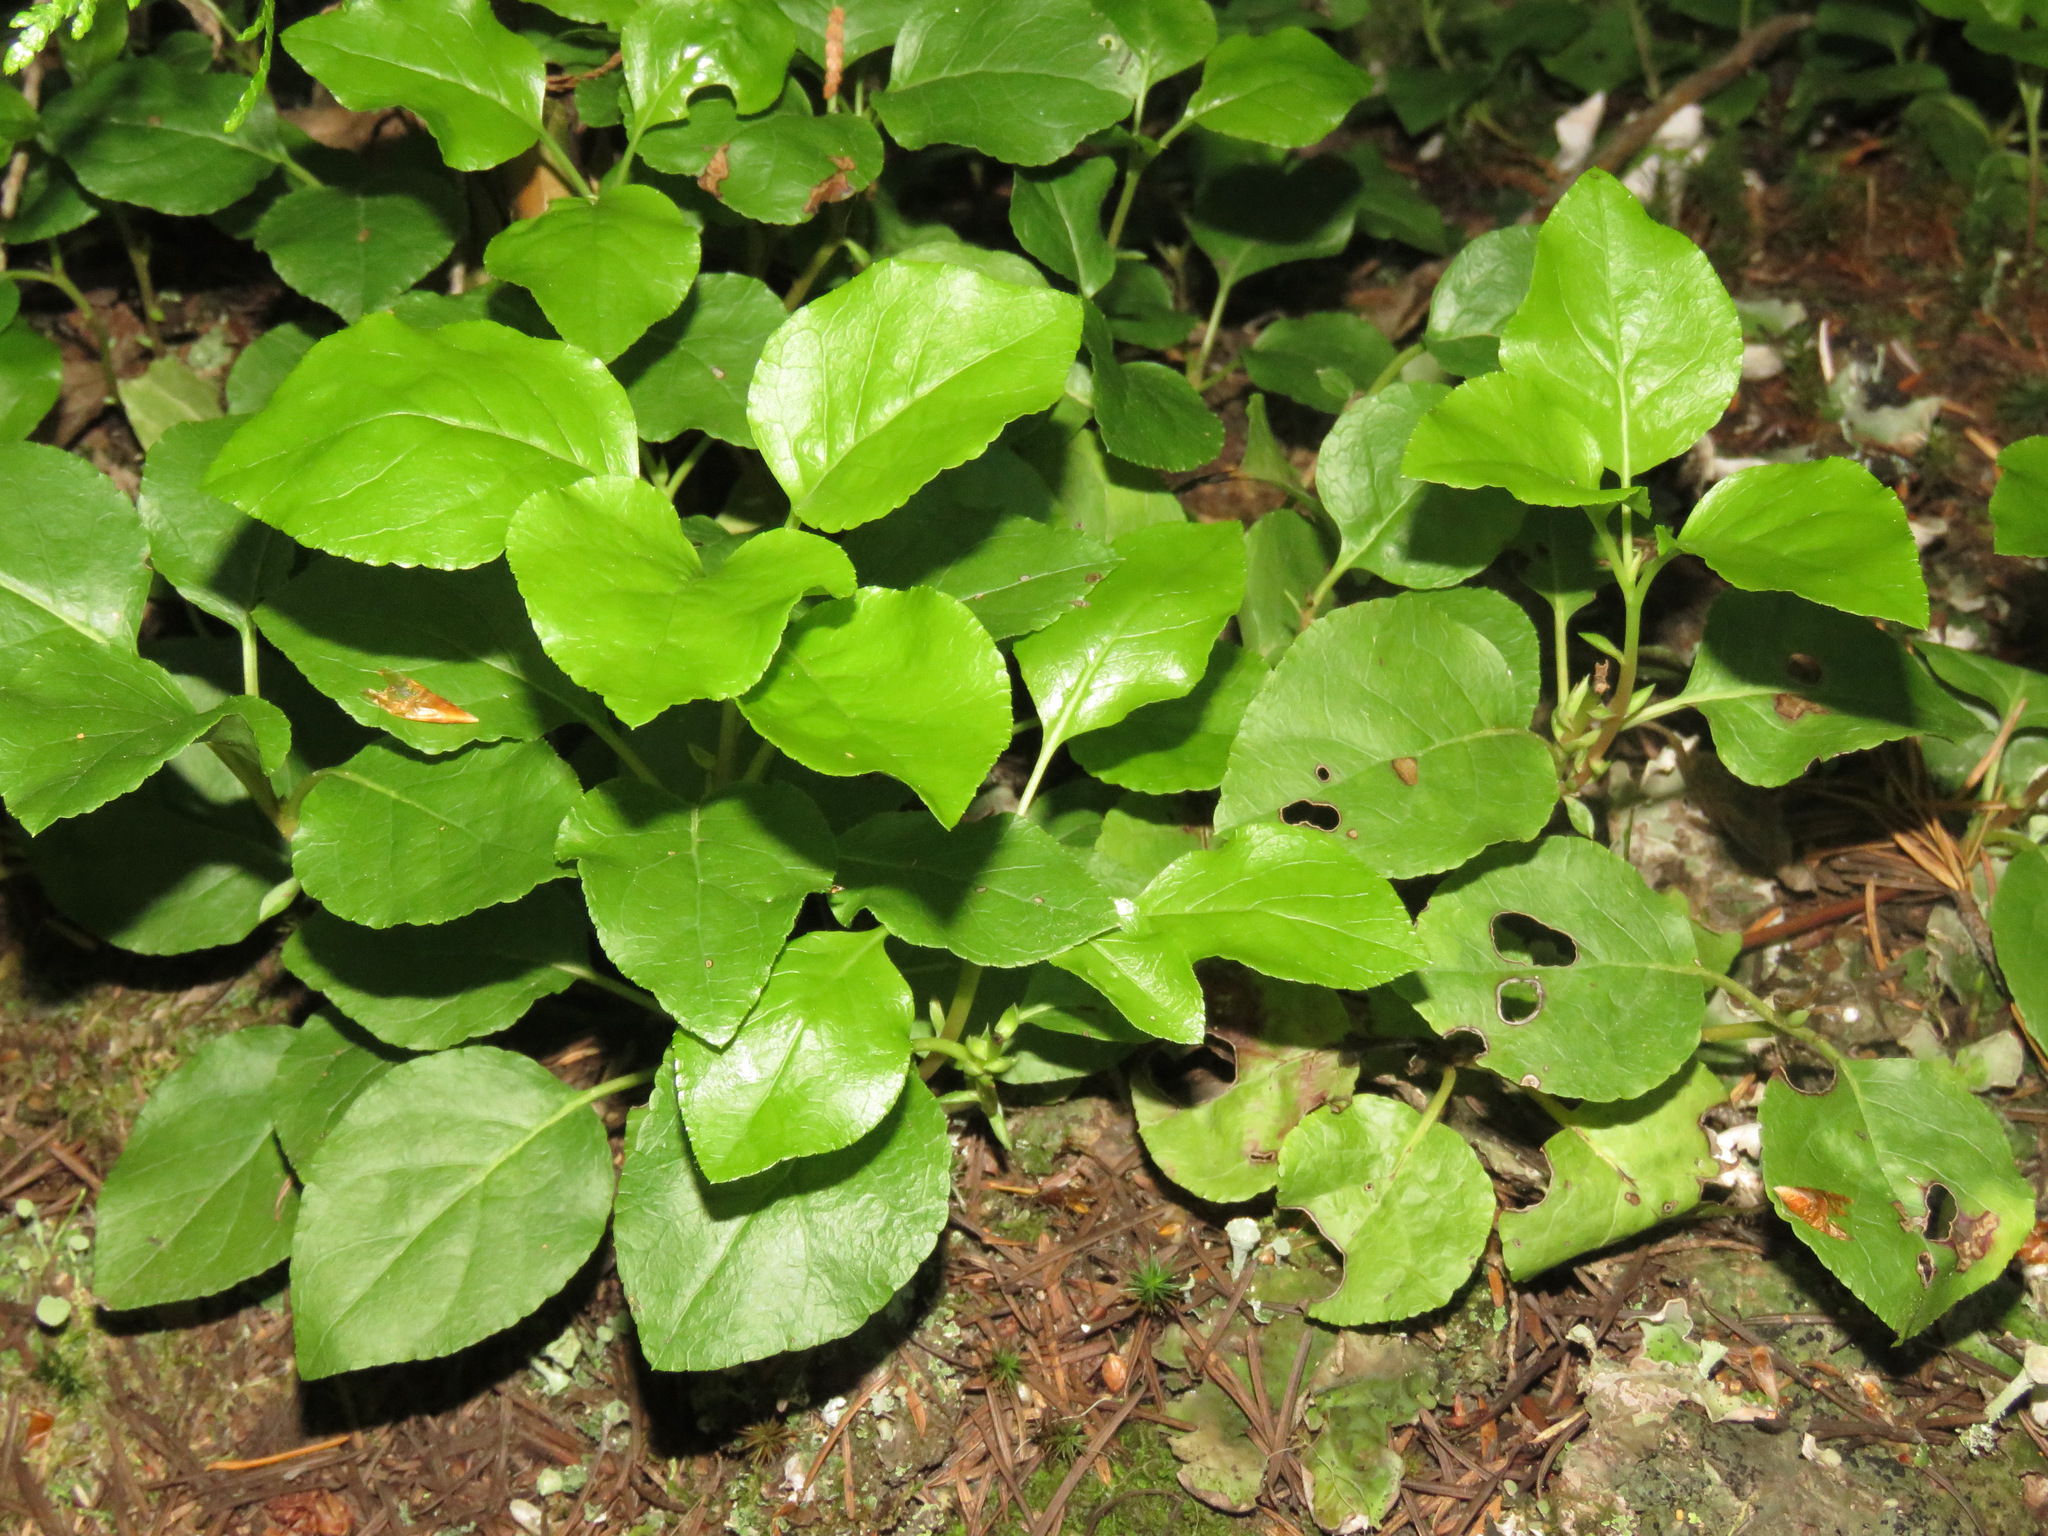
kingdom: Plantae
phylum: Tracheophyta
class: Magnoliopsida
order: Ericales
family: Ericaceae
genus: Orthilia
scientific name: Orthilia secunda
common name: One-sided orthilia
